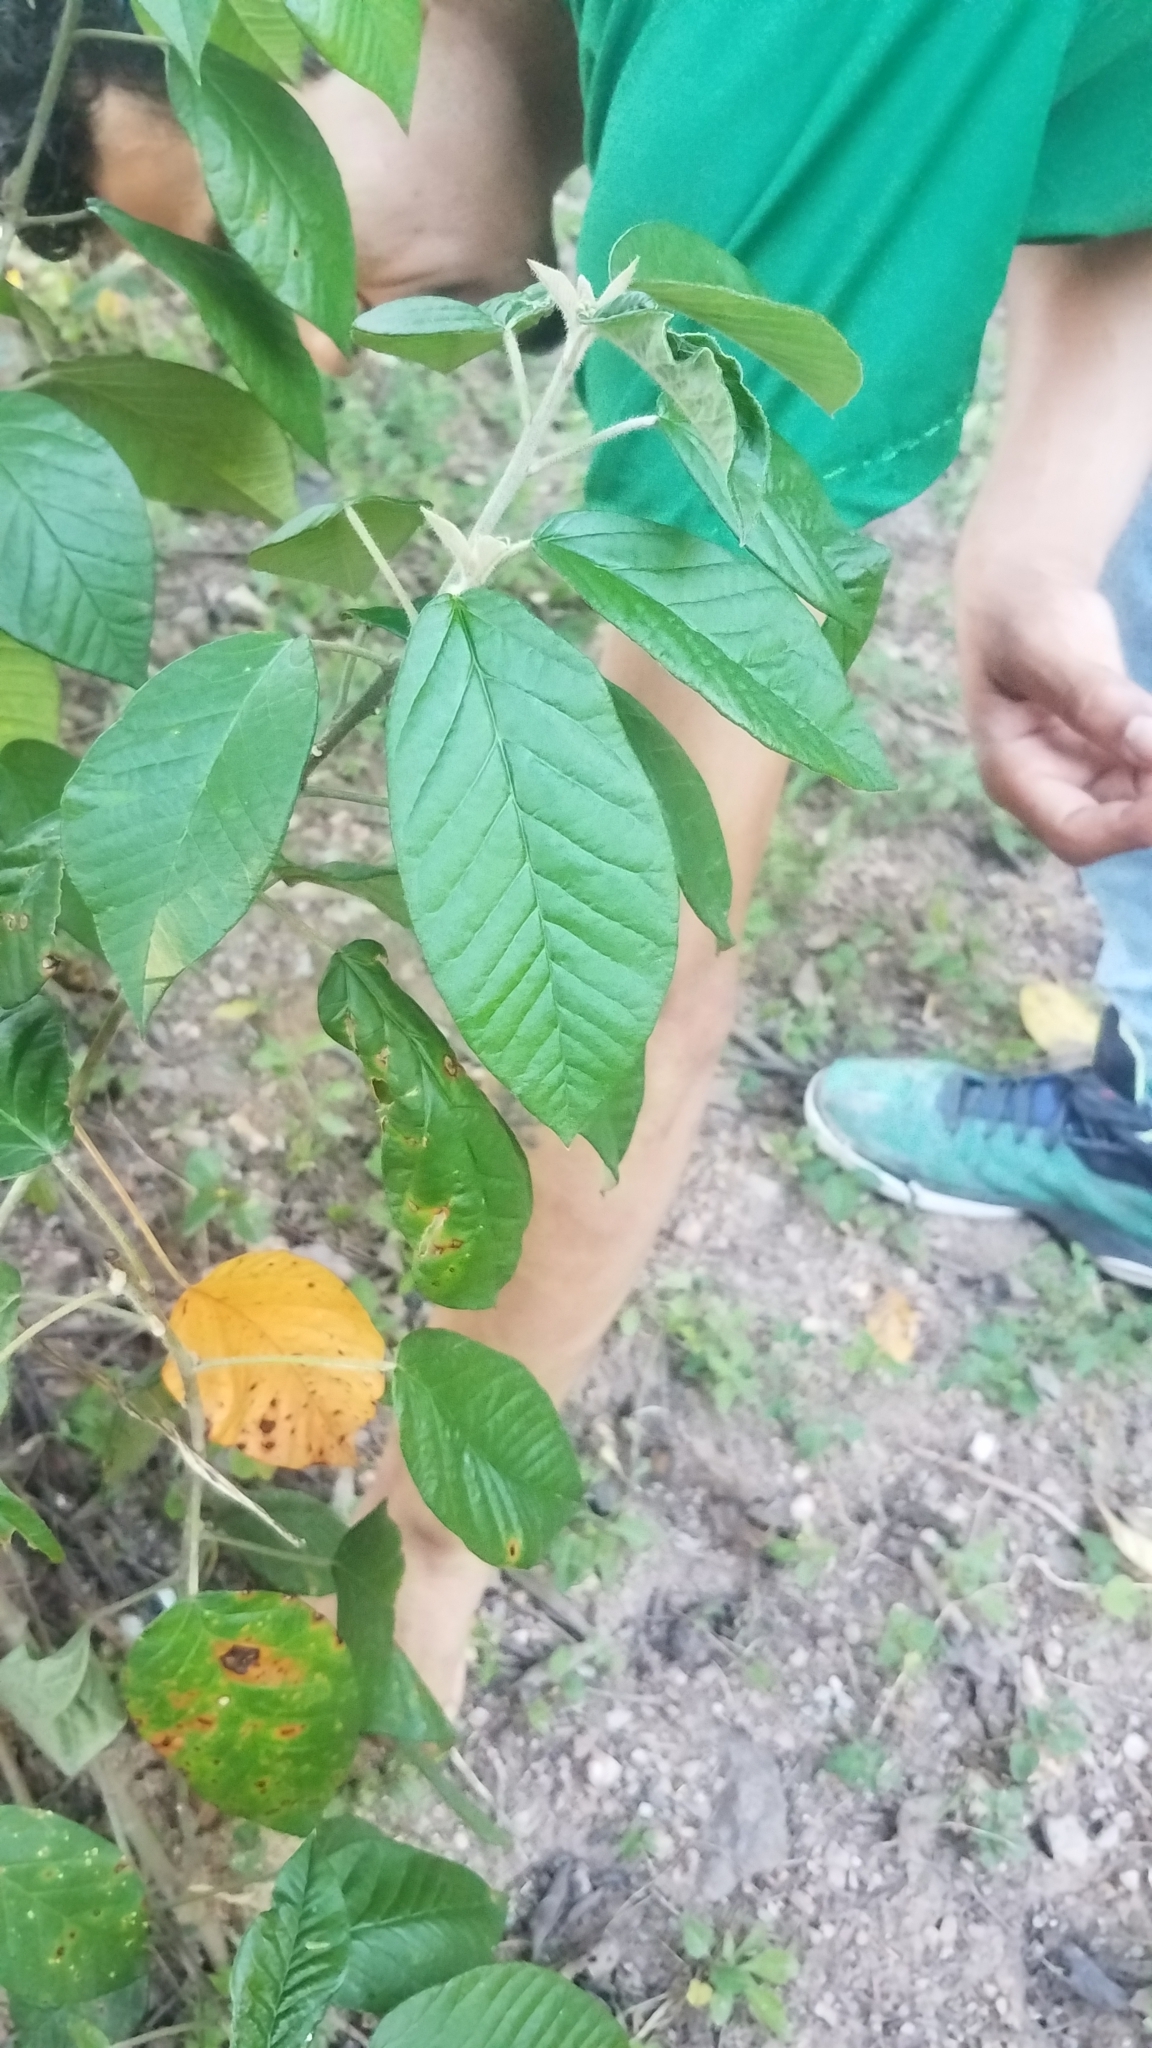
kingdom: Plantae
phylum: Tracheophyta
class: Magnoliopsida
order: Malpighiales
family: Euphorbiaceae
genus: Croton
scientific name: Croton cortesianus
